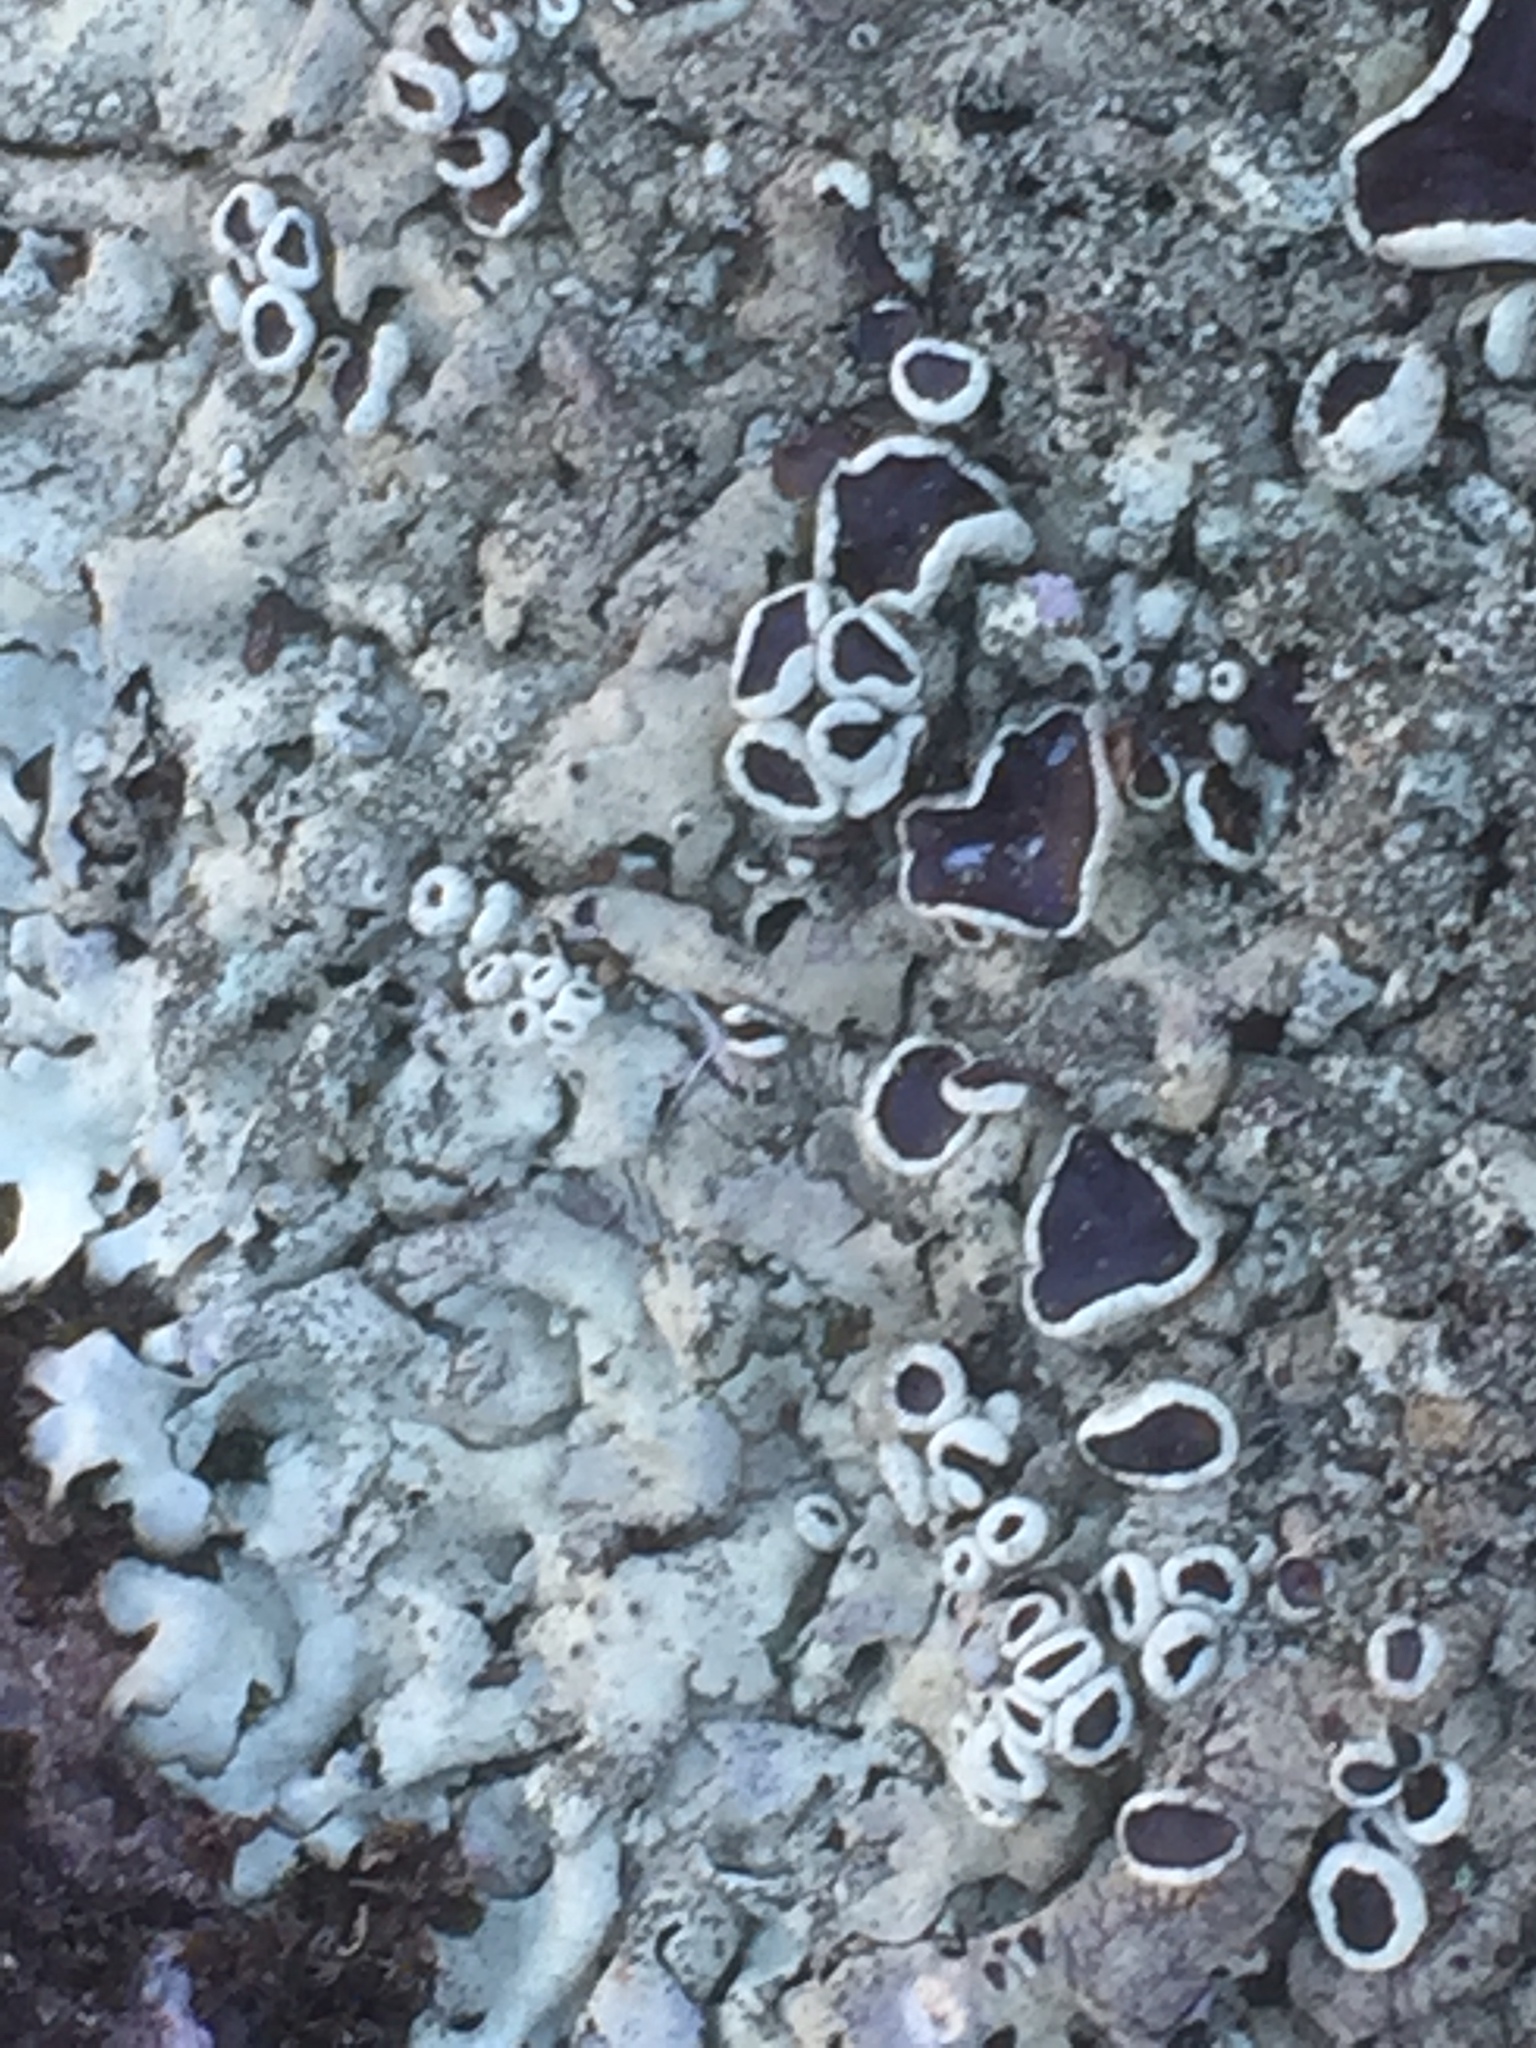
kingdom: Fungi
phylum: Ascomycota
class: Lecanoromycetes
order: Lecanorales
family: Parmeliaceae
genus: Xanthoparmelia
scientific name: Xanthoparmelia conspersa
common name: Peppered rock shield
